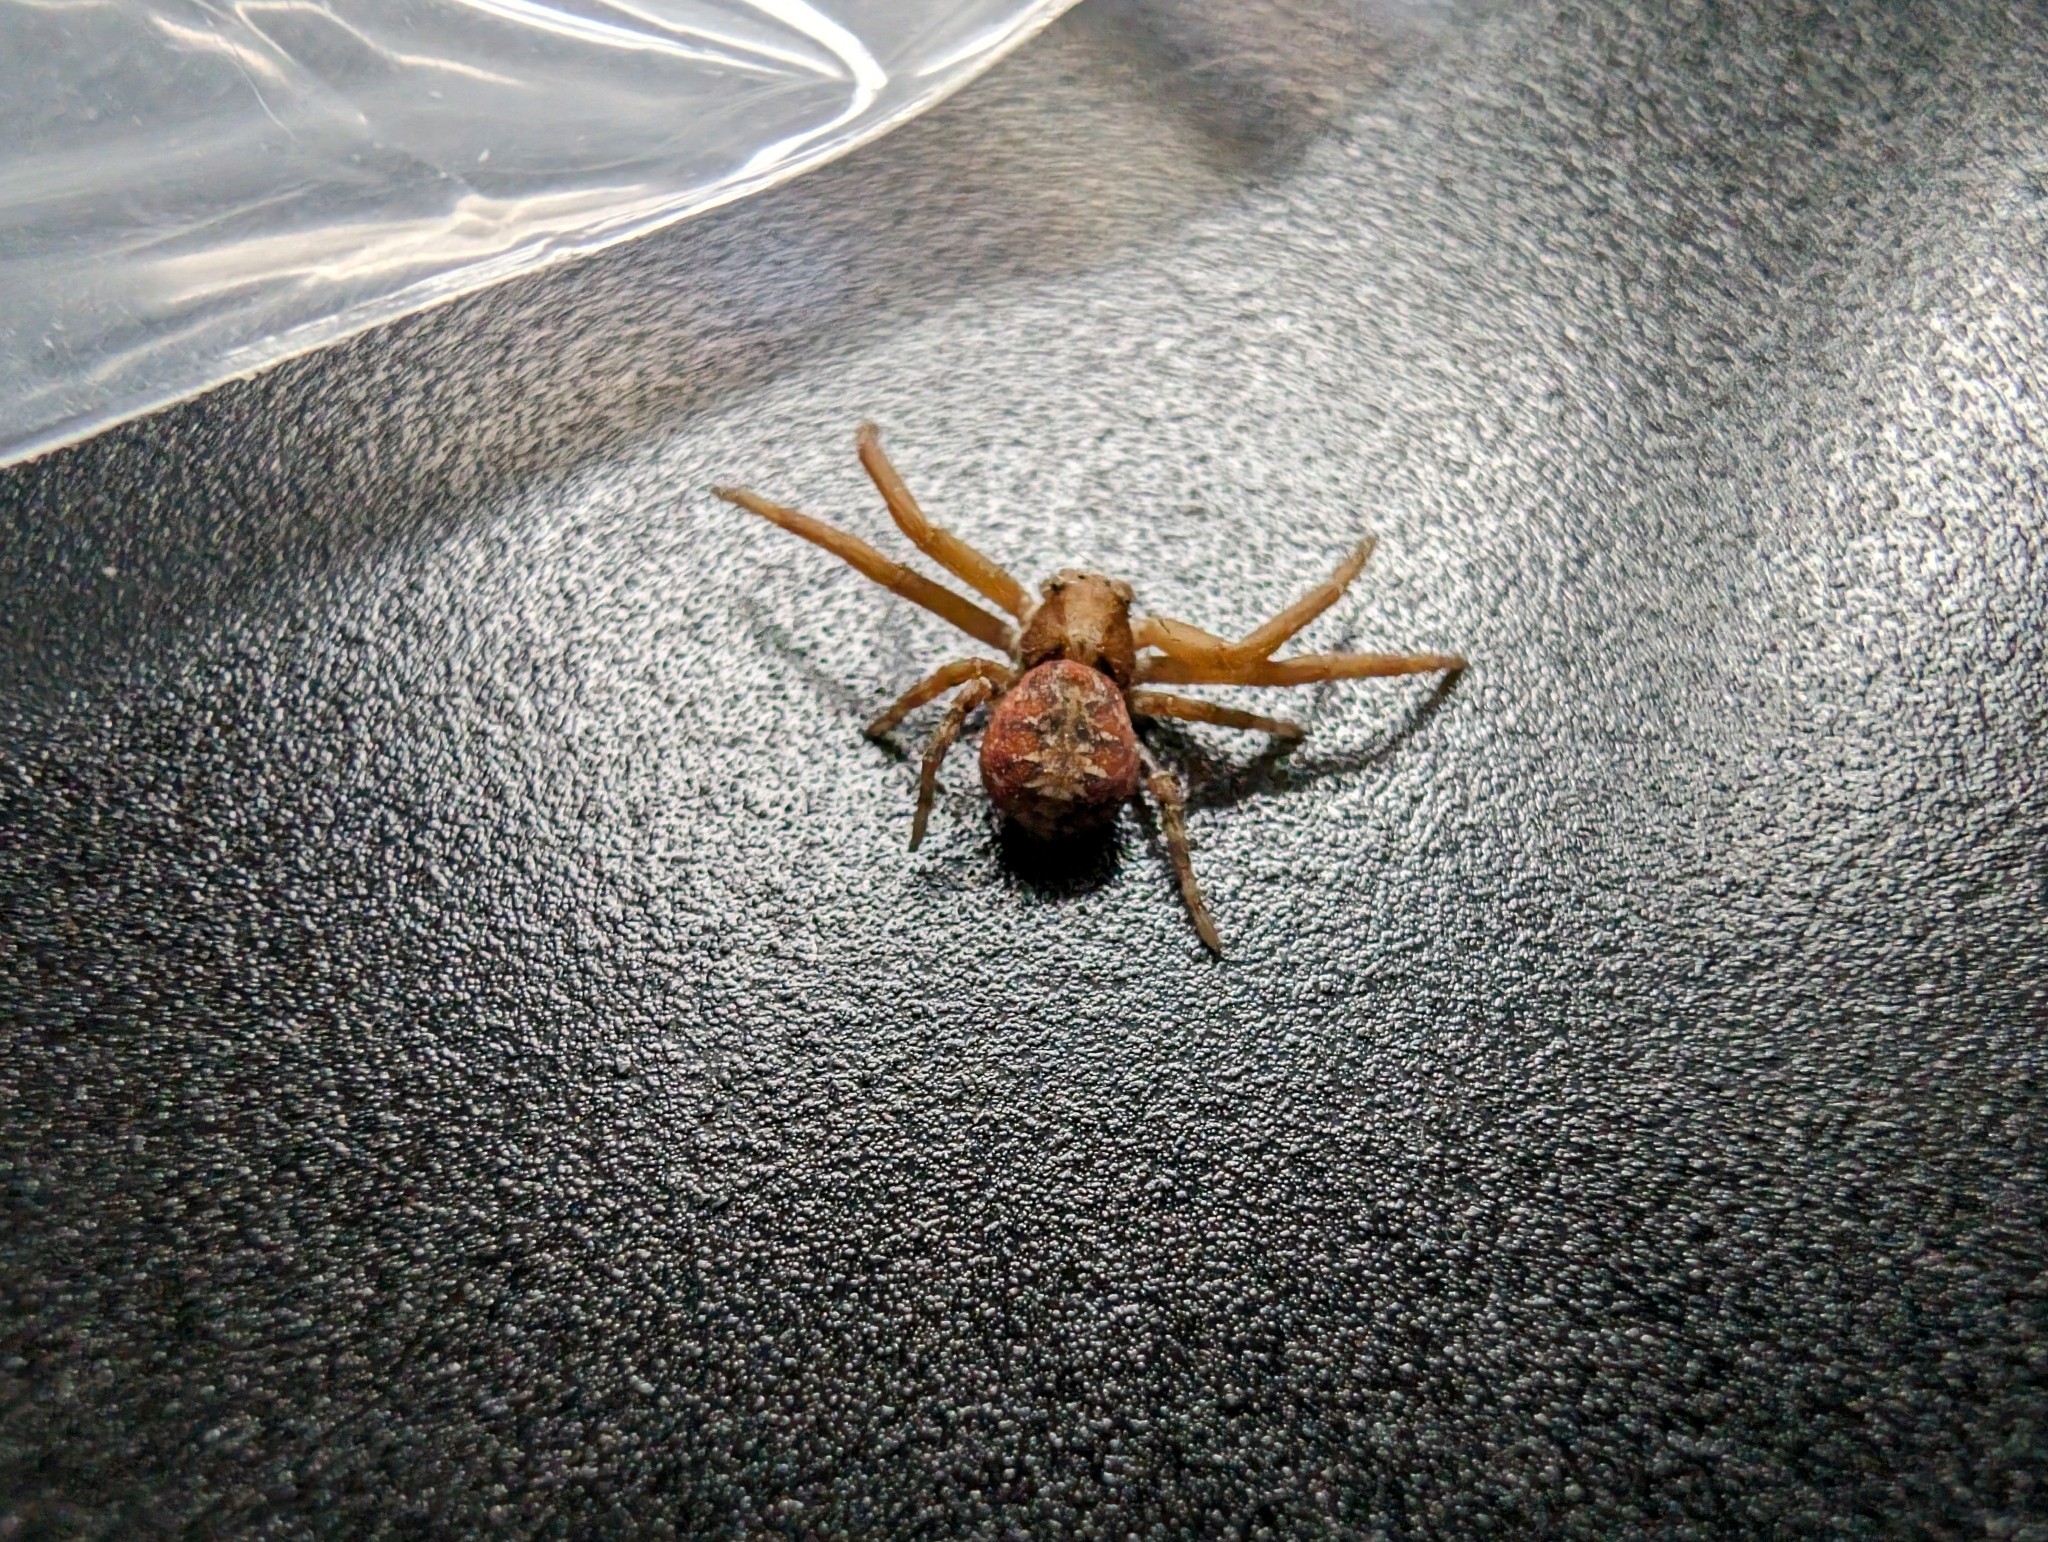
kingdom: Animalia
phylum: Arthropoda
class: Arachnida
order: Araneae
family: Thomisidae
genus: Xysticus
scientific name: Xysticus punctatus
